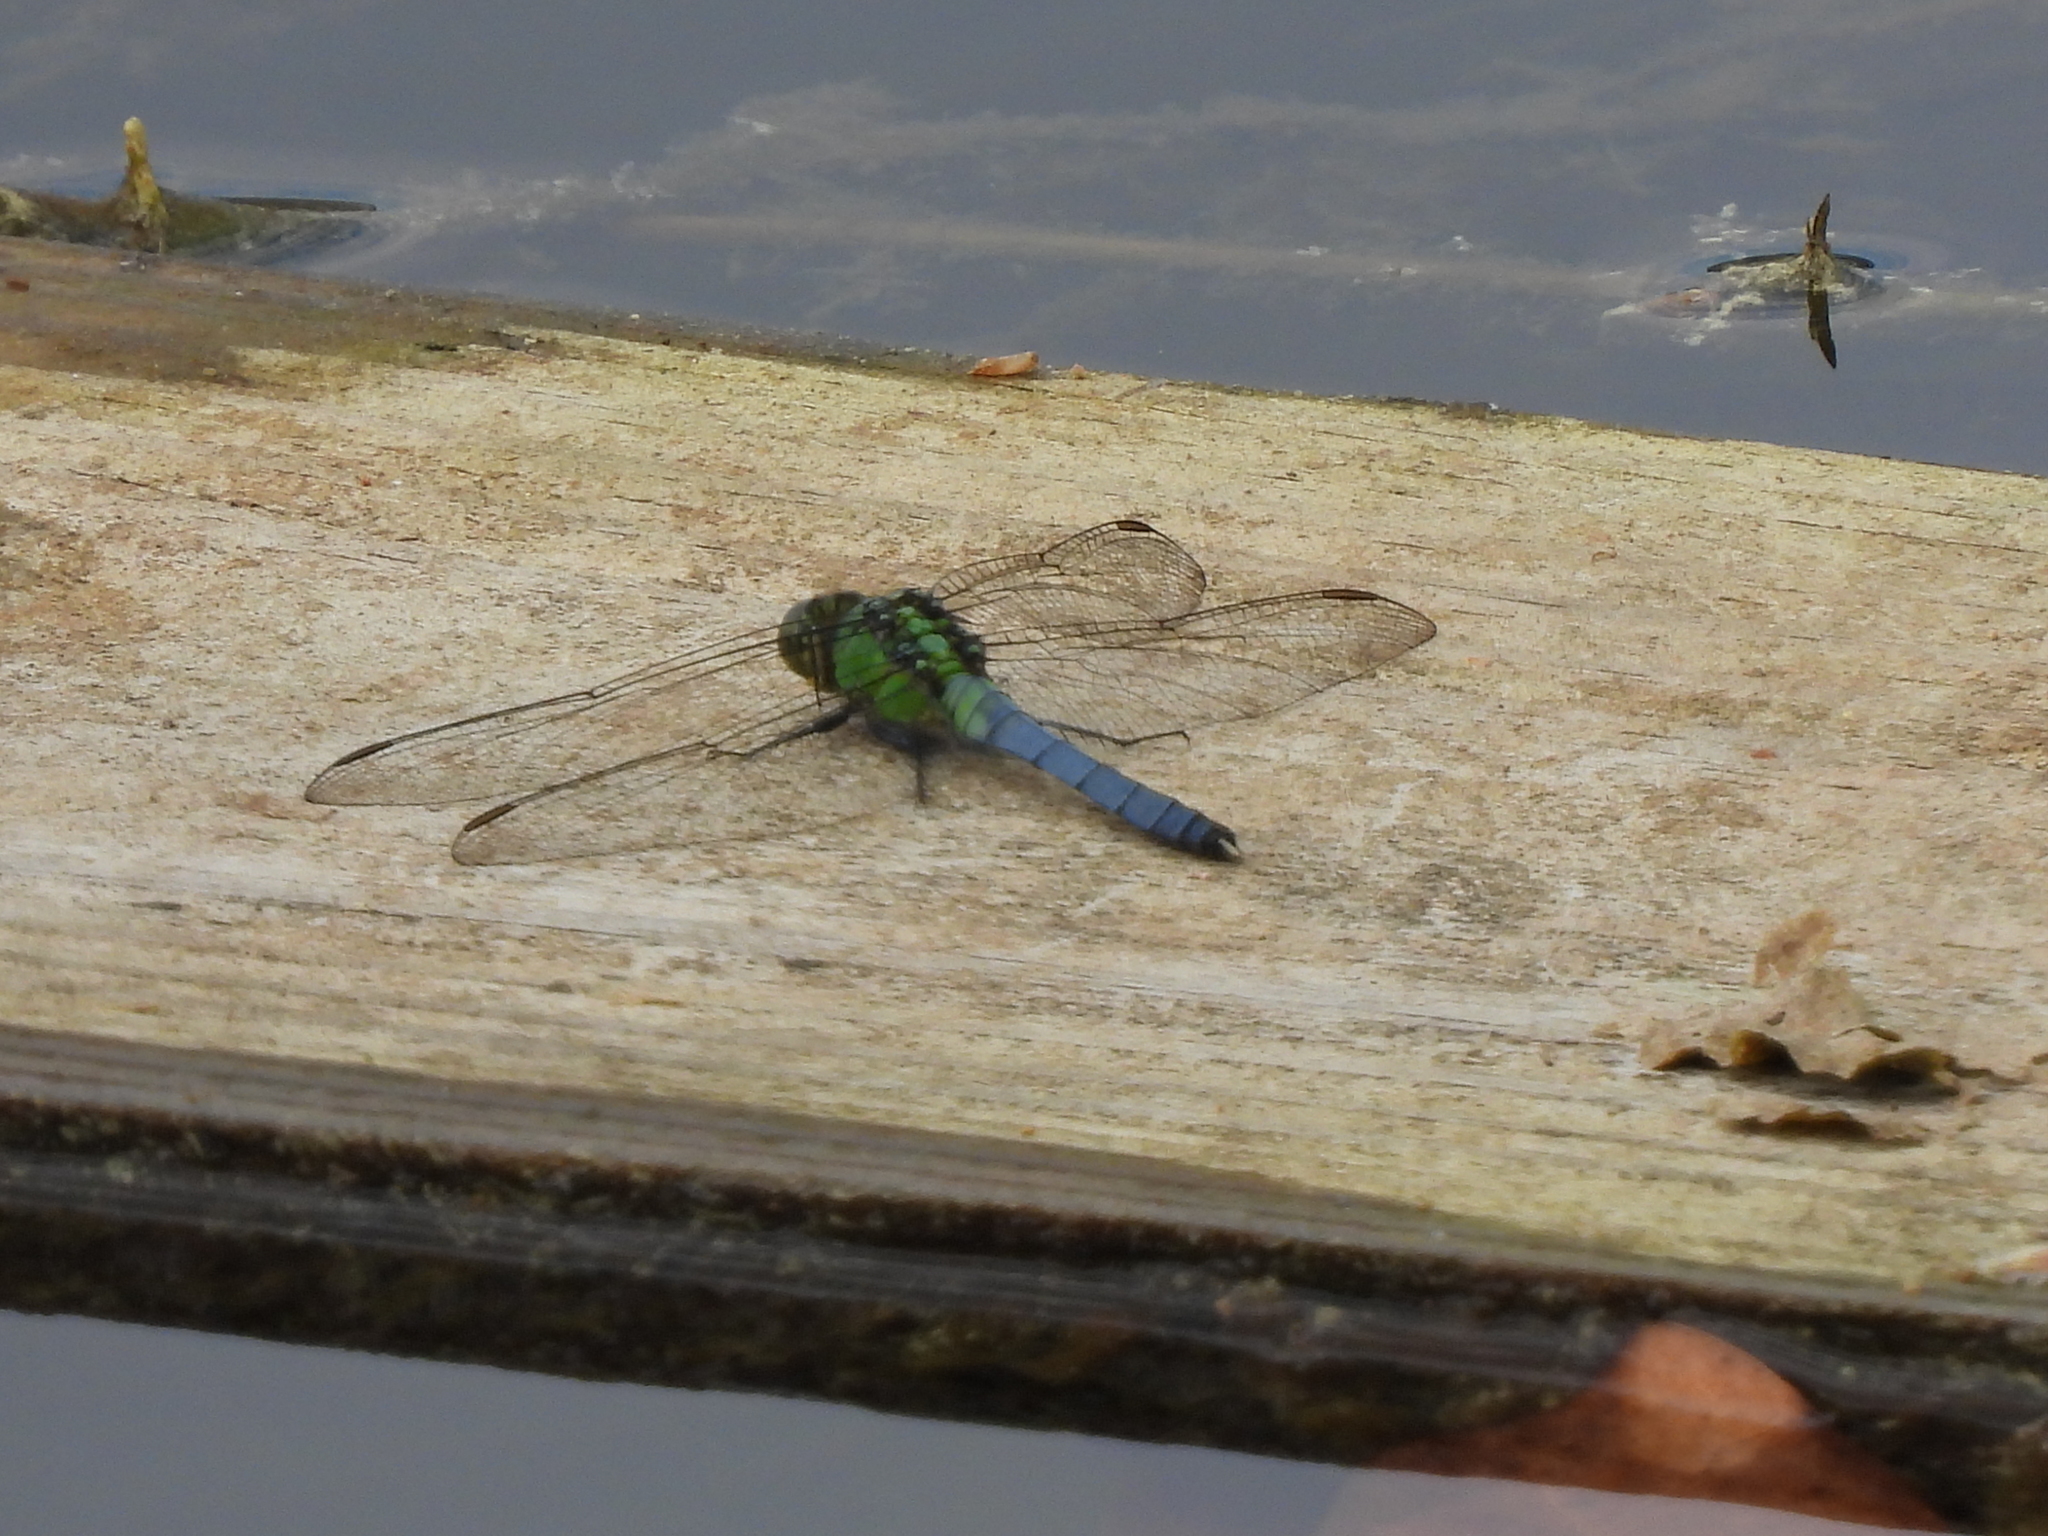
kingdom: Animalia
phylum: Arthropoda
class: Insecta
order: Odonata
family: Libellulidae
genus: Erythemis
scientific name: Erythemis simplicicollis
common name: Eastern pondhawk
